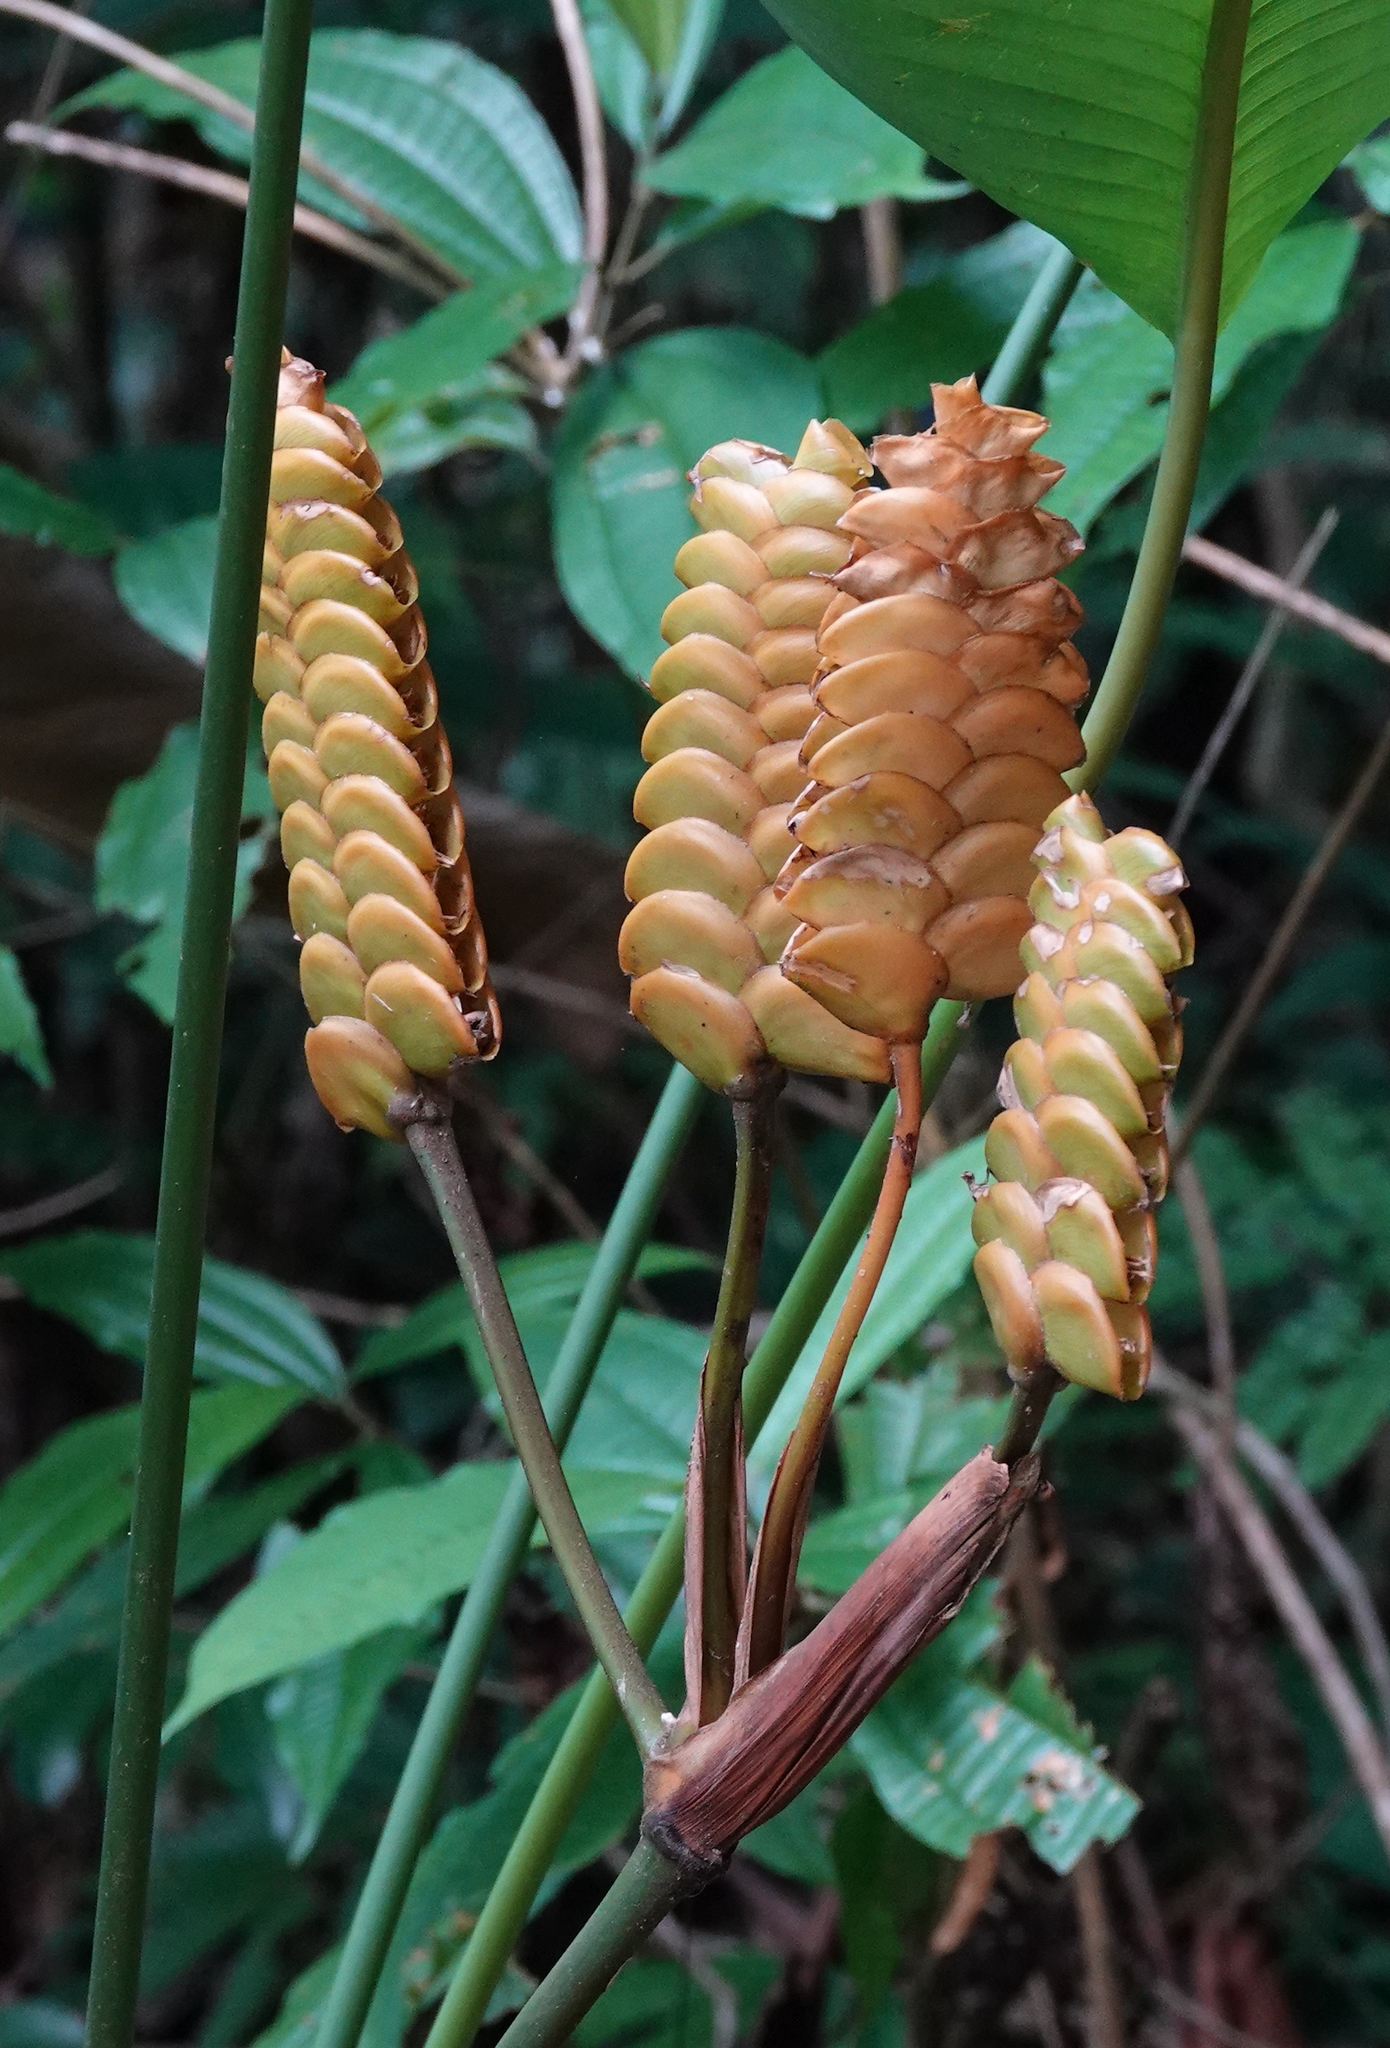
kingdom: Plantae
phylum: Tracheophyta
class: Liliopsida
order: Zingiberales
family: Marantaceae
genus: Calathea
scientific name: Calathea crotalifera
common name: Rattlesnake plant
